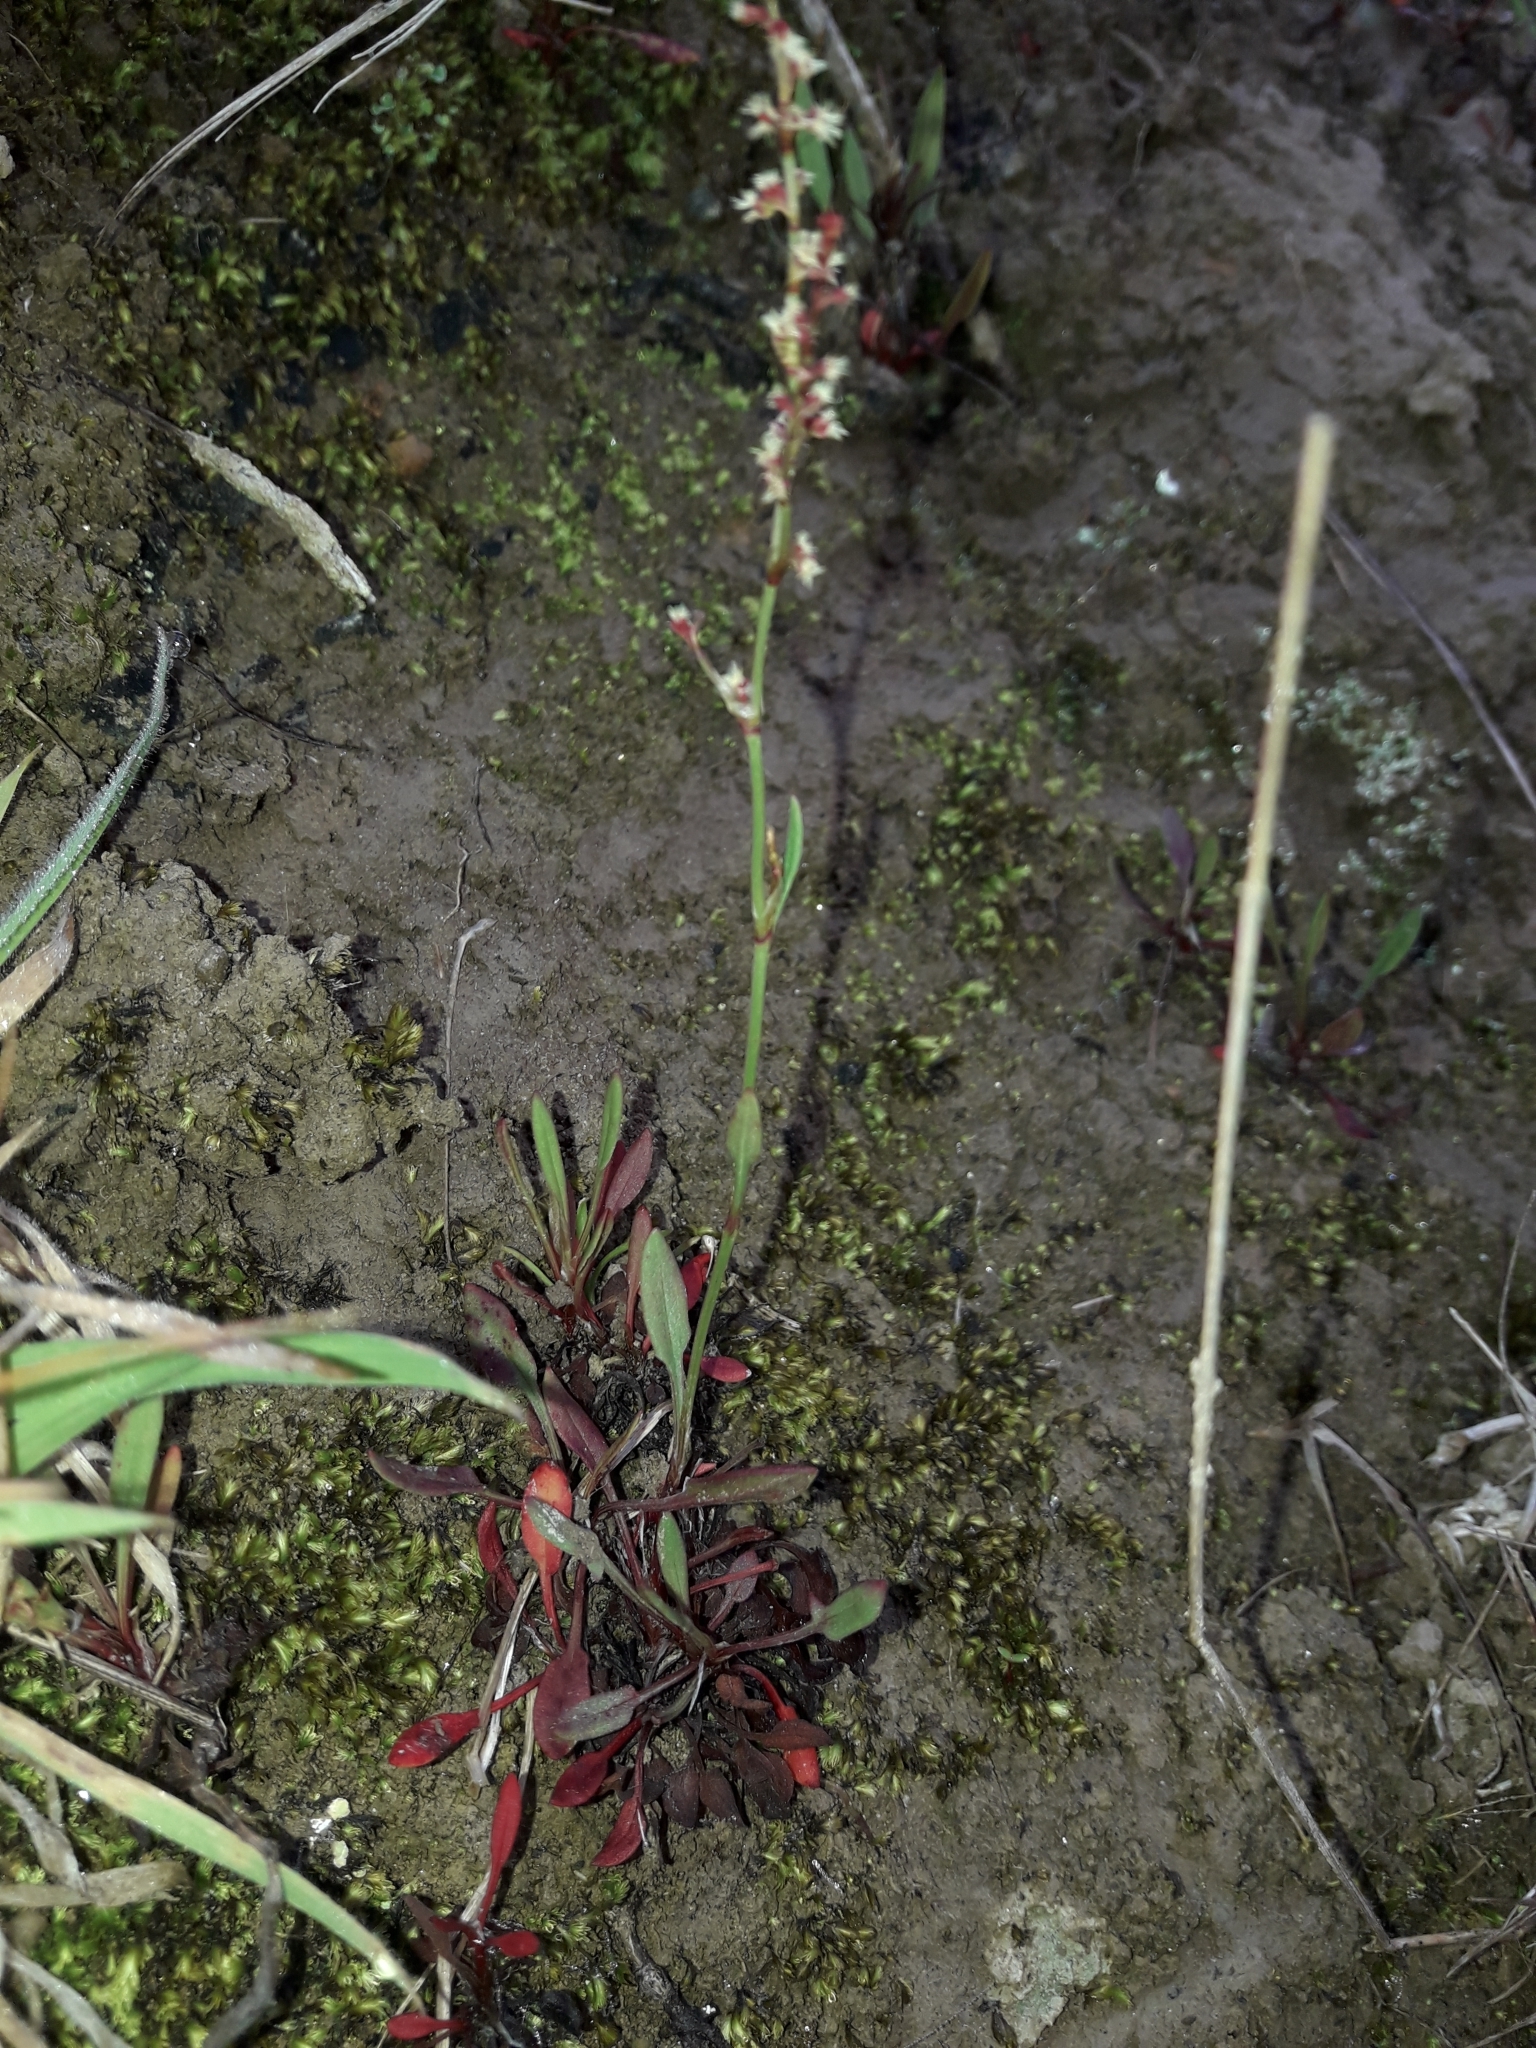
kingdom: Plantae
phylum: Tracheophyta
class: Magnoliopsida
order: Caryophyllales
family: Polygonaceae
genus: Rumex
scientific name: Rumex acetosella
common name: Common sheep sorrel
